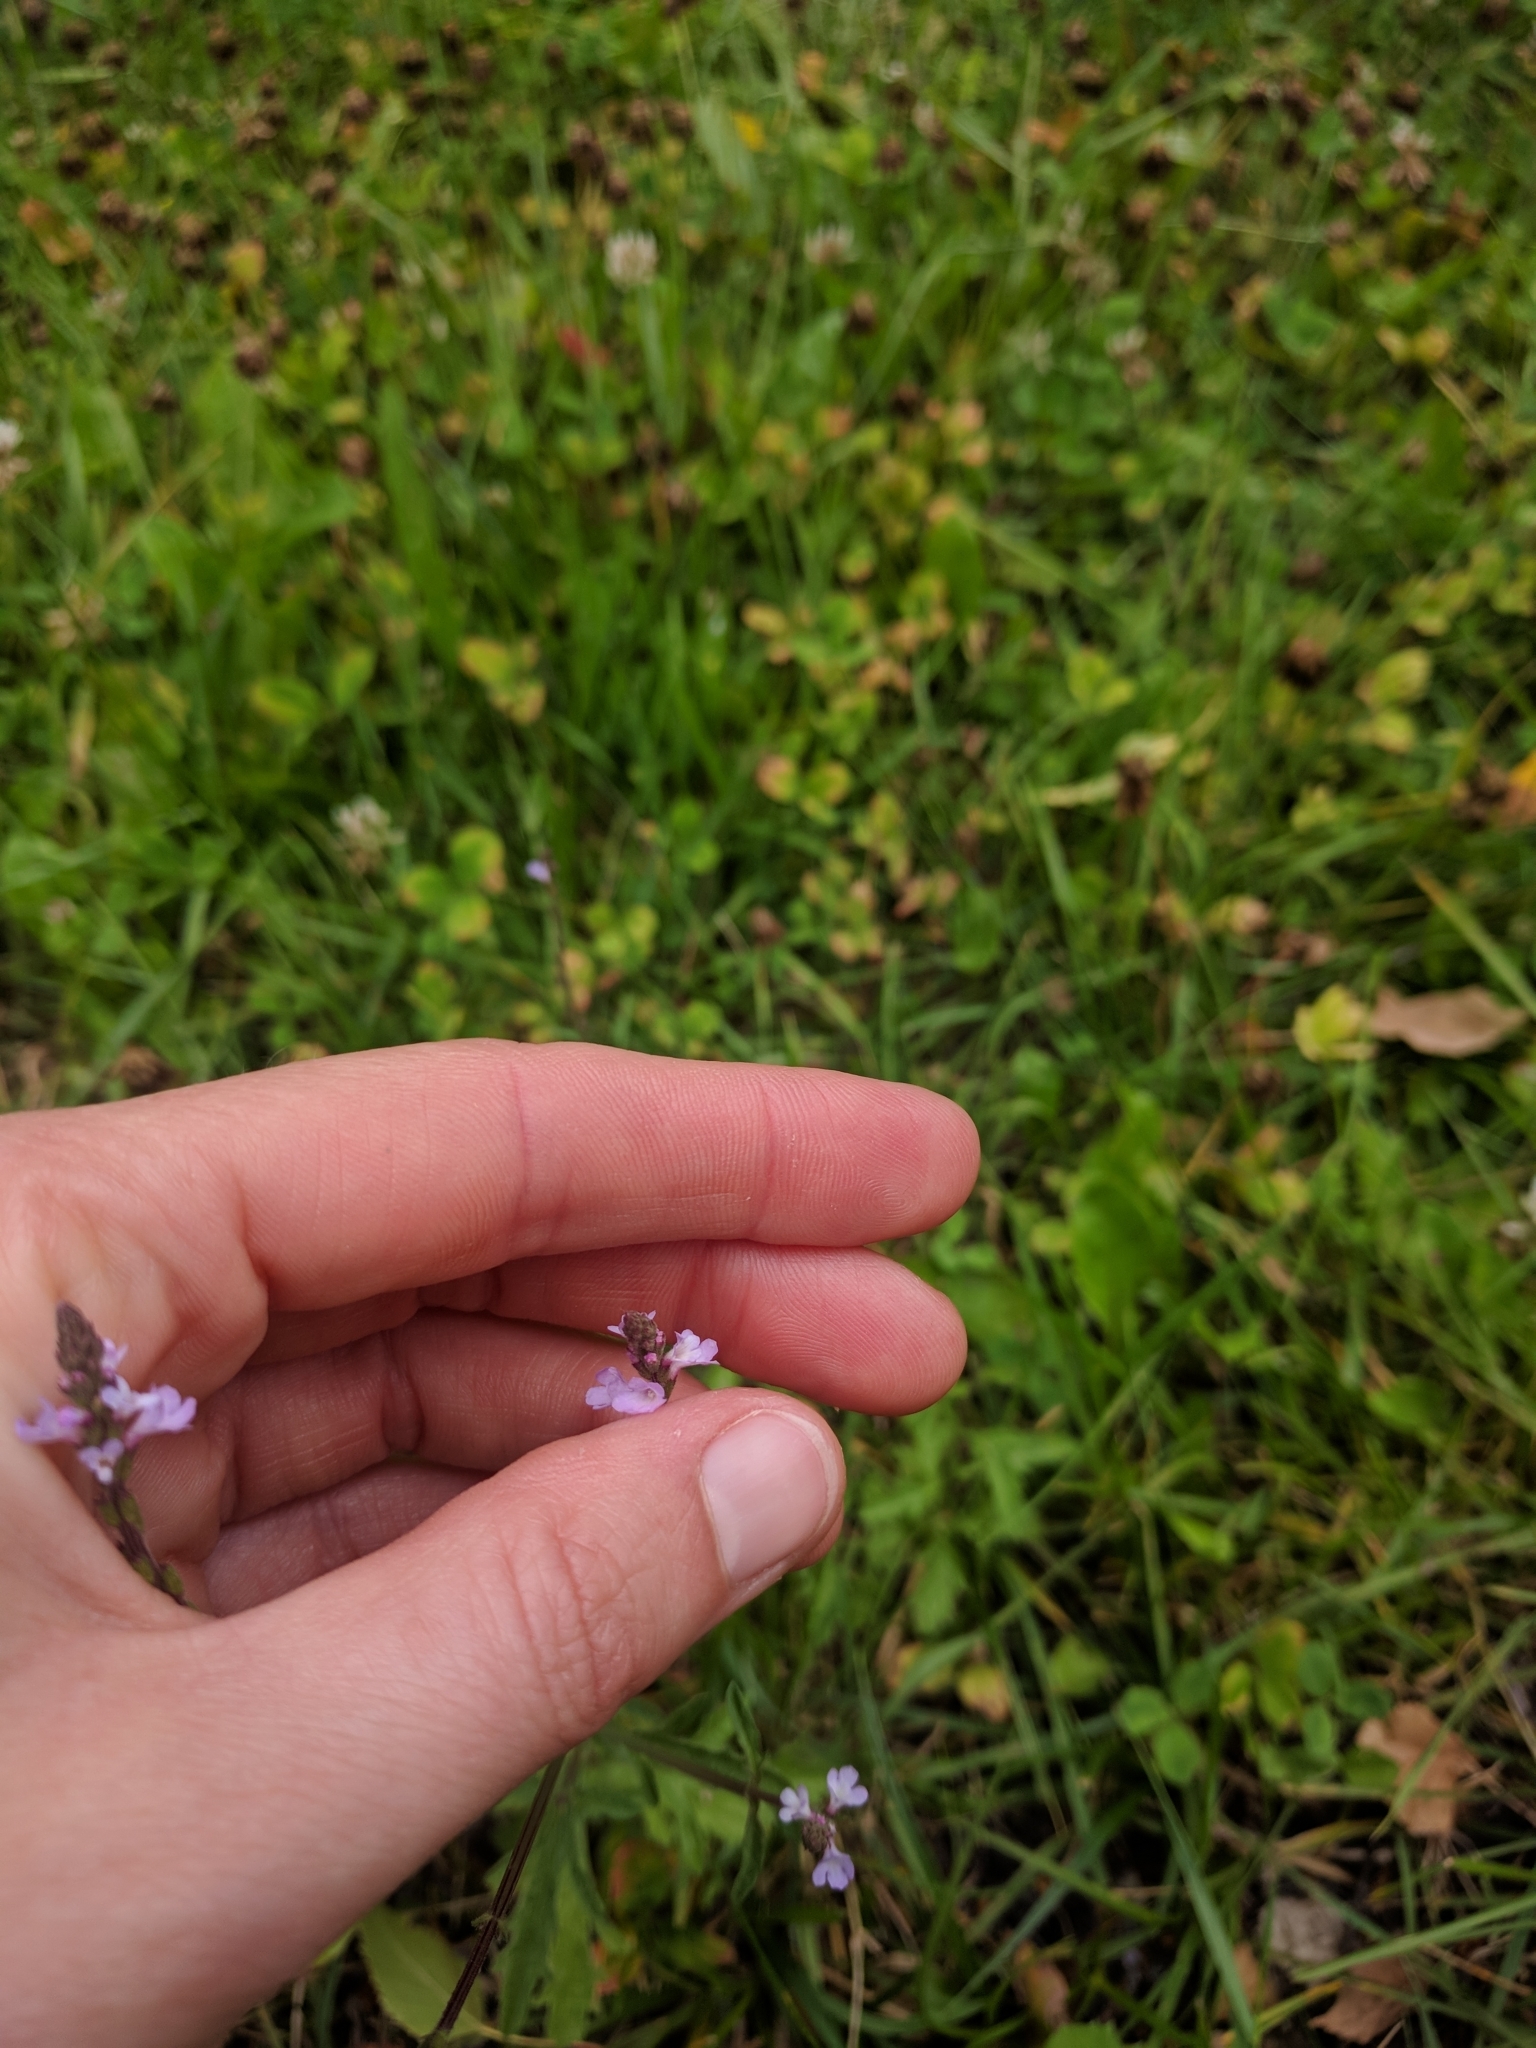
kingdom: Plantae
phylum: Tracheophyta
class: Magnoliopsida
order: Lamiales
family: Verbenaceae
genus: Verbena
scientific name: Verbena officinalis
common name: Vervain
